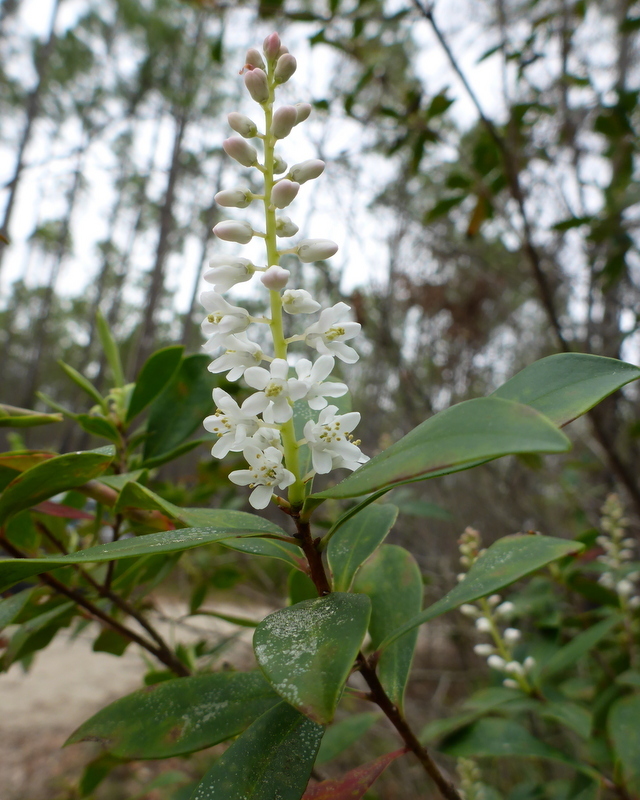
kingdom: Plantae
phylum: Tracheophyta
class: Magnoliopsida
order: Ericales
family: Cyrillaceae
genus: Cliftonia
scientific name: Cliftonia monophylla
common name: Titi
